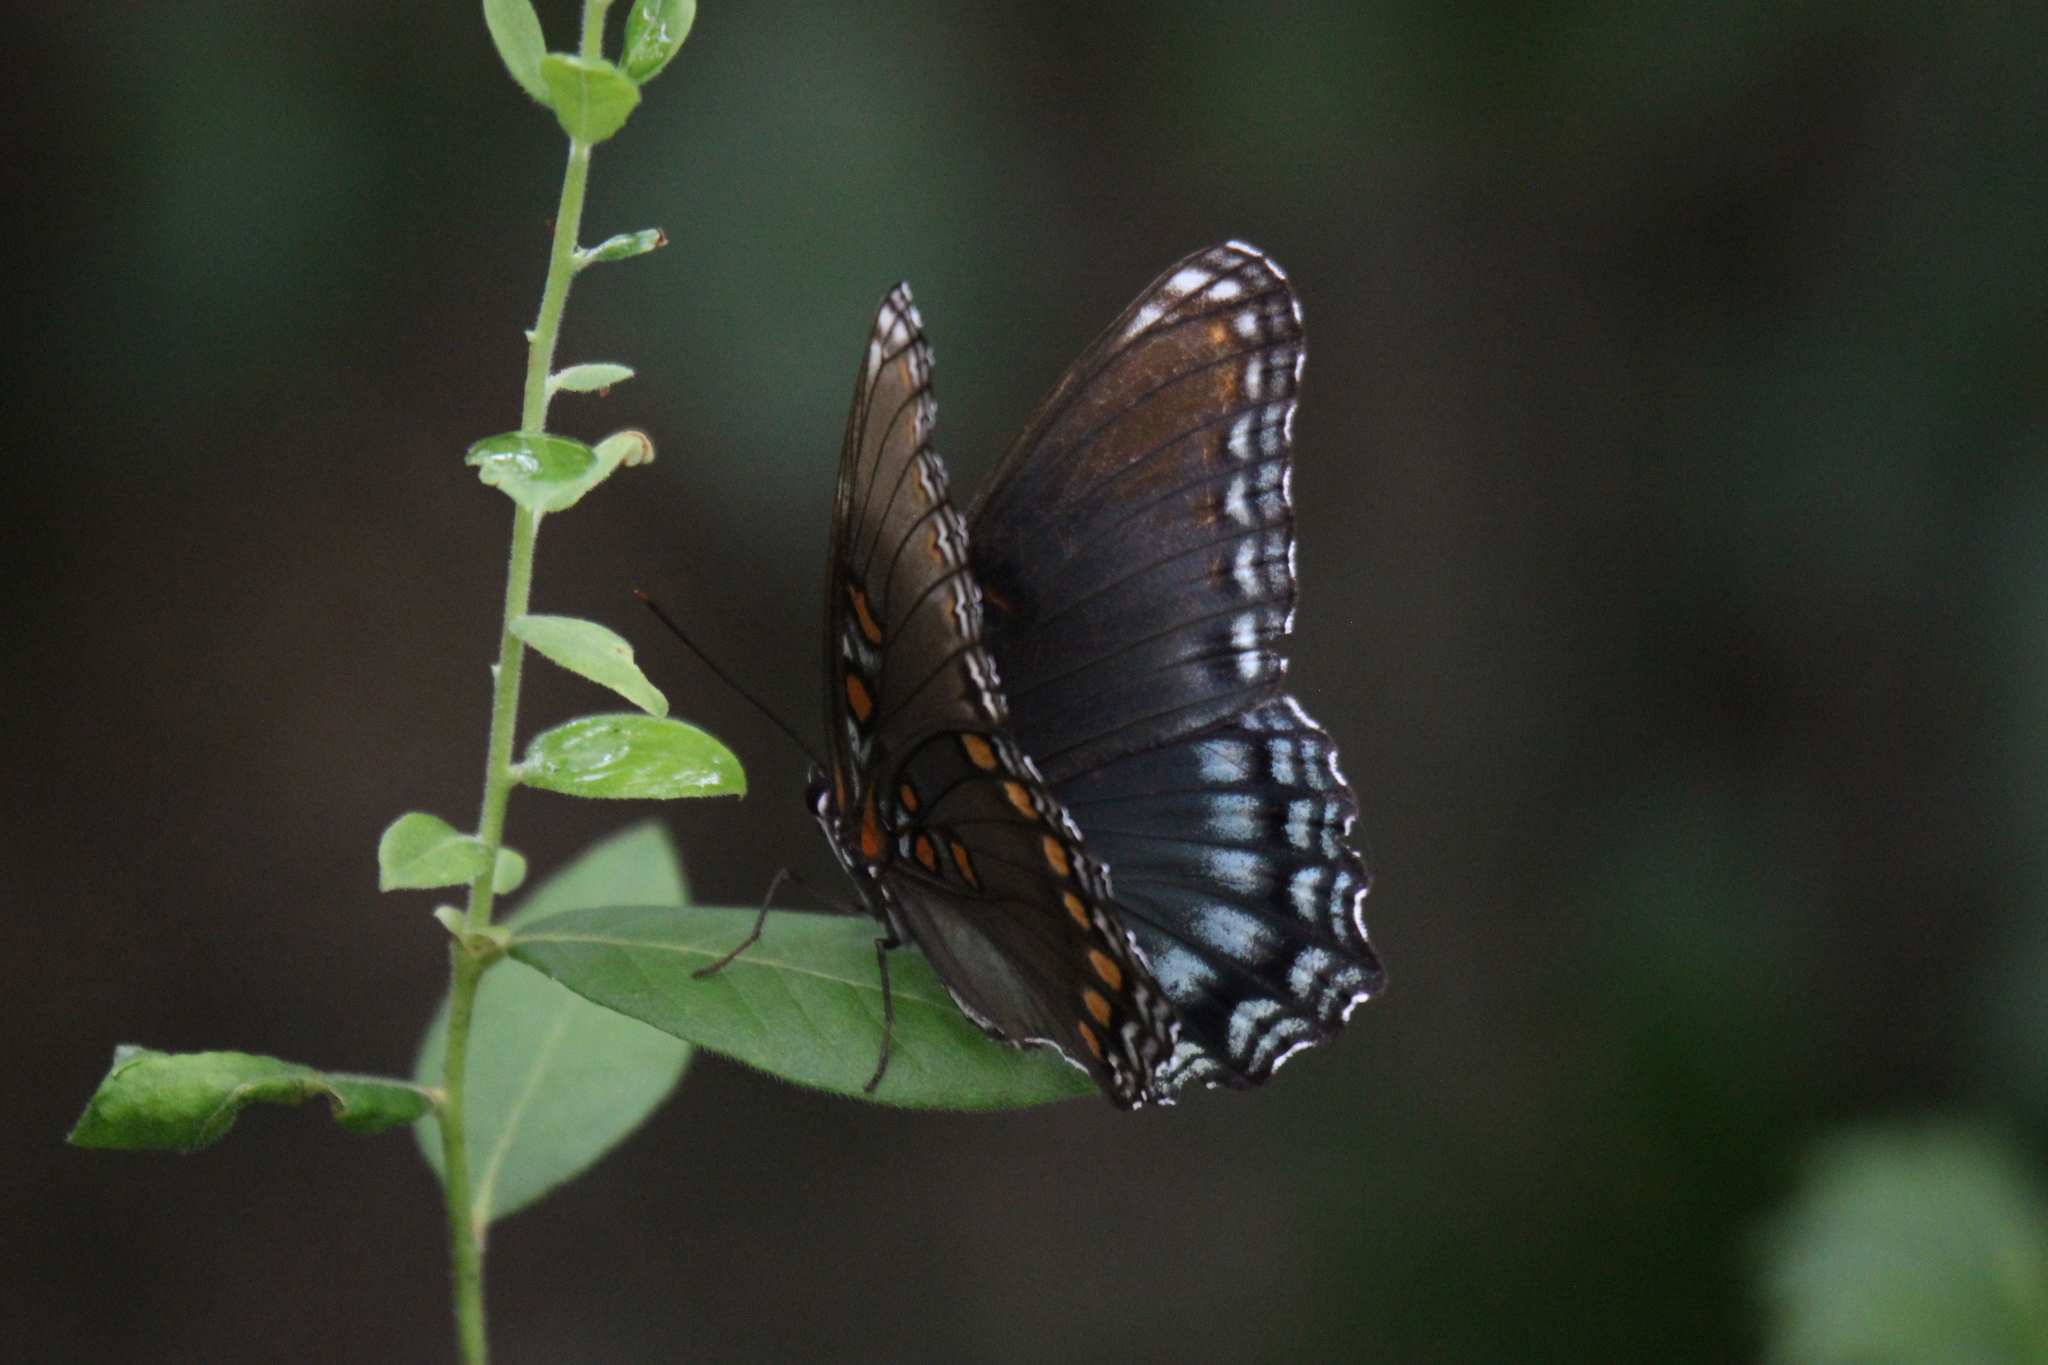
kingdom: Animalia
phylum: Arthropoda
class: Insecta
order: Lepidoptera
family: Nymphalidae
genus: Limenitis
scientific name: Limenitis astyanax
